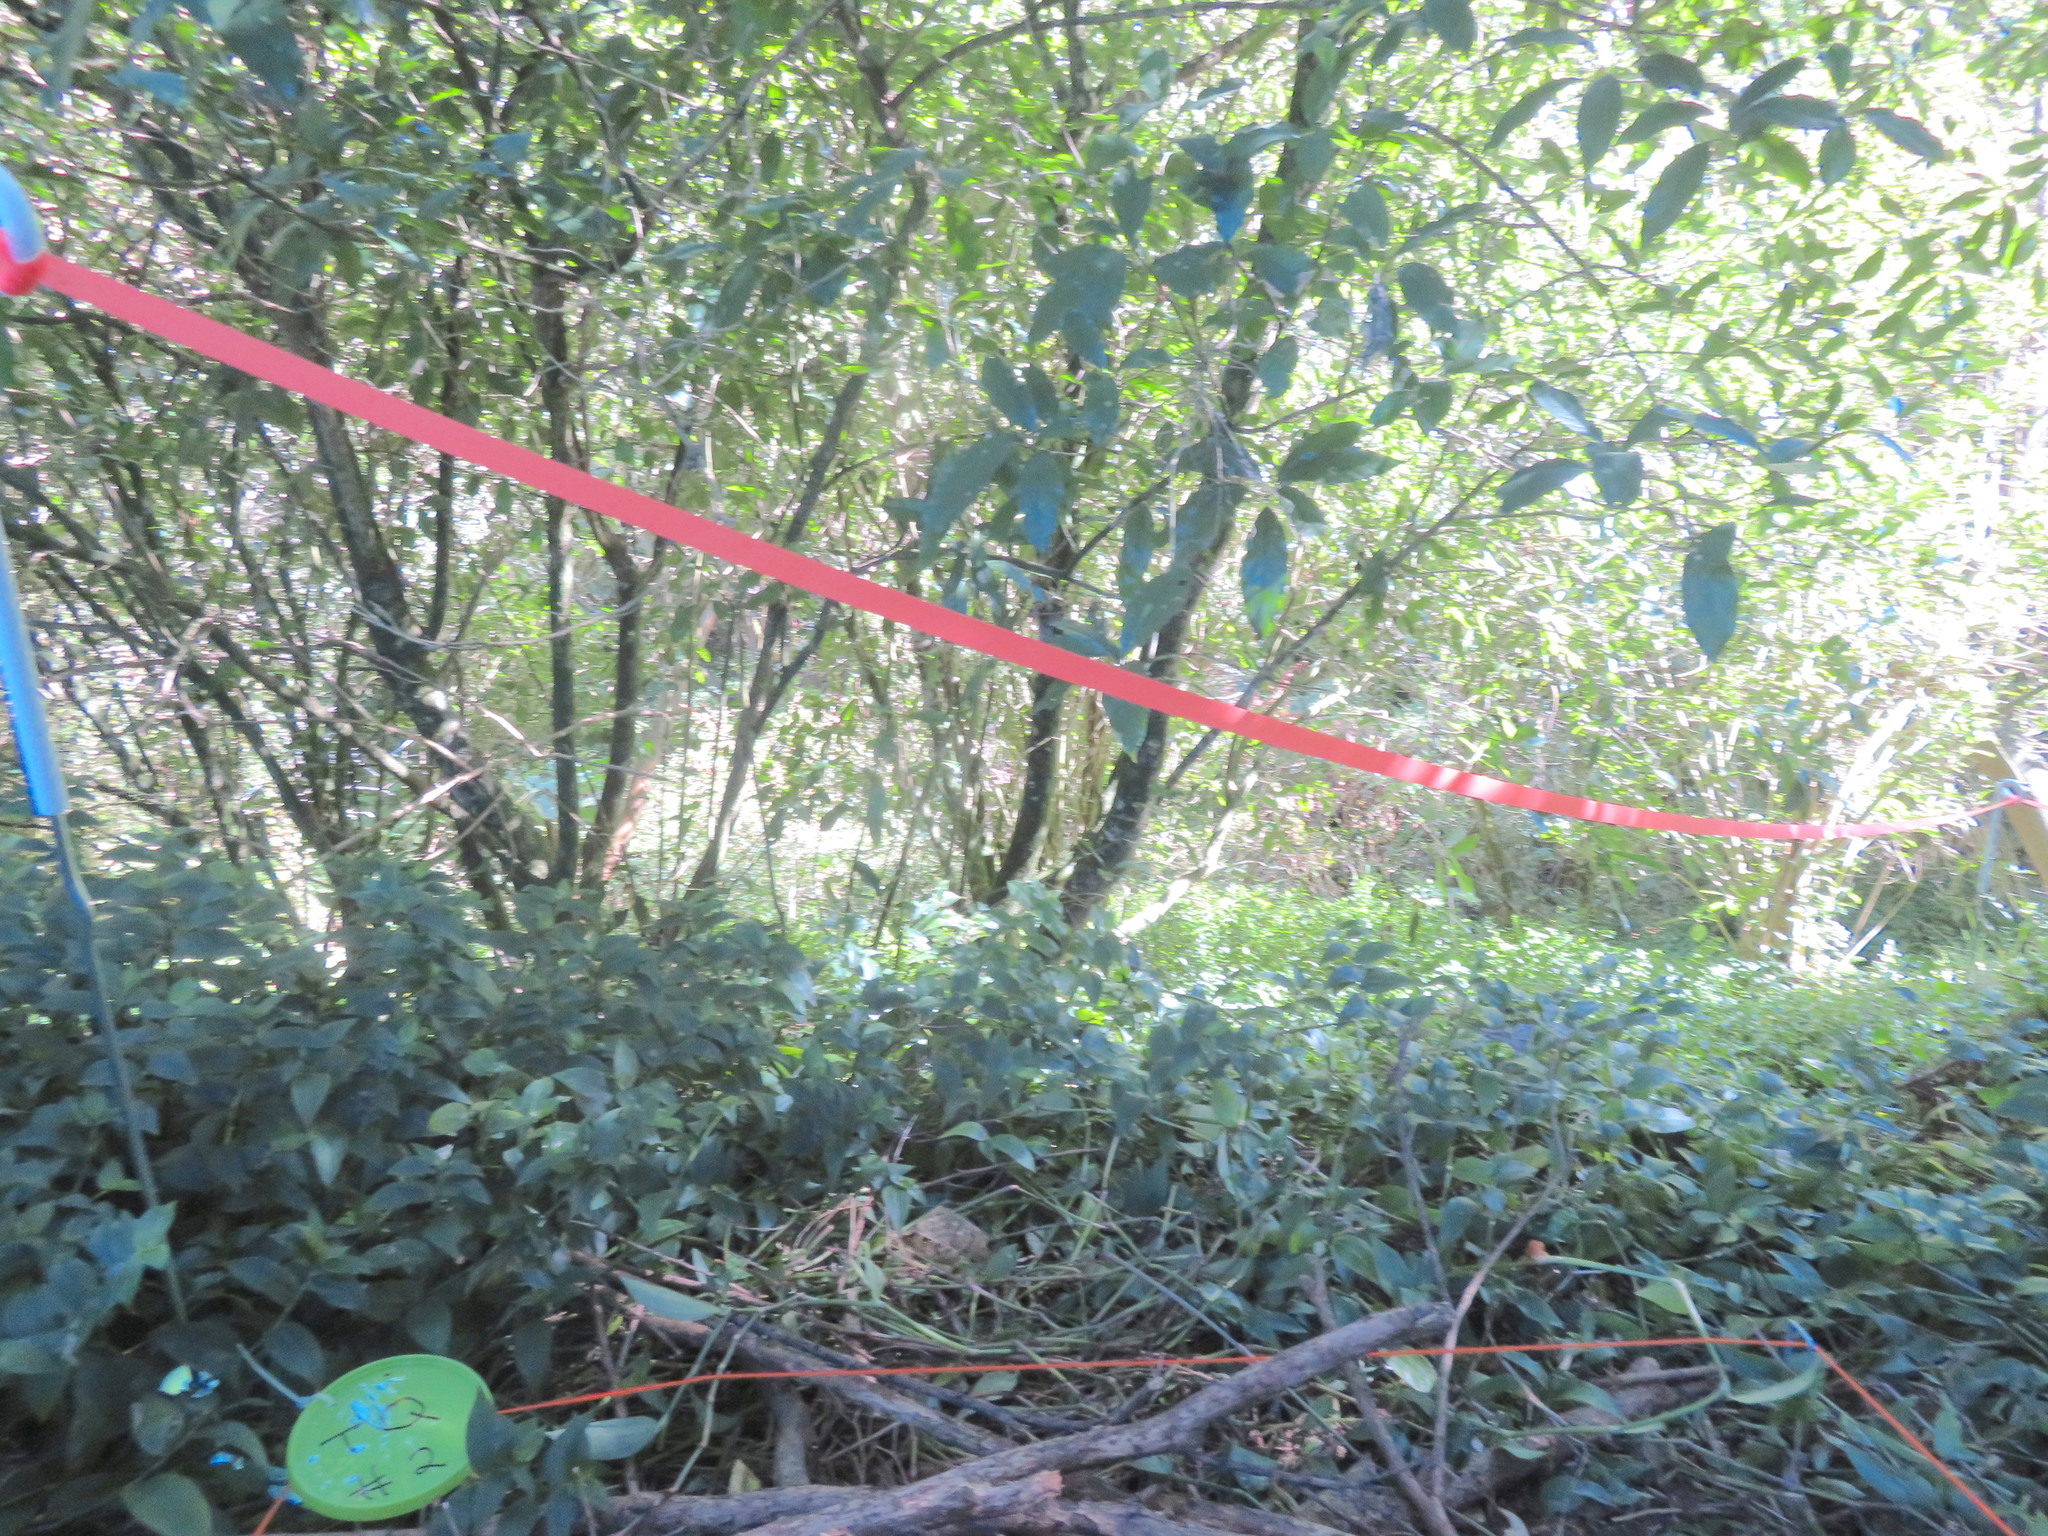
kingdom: Plantae
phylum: Tracheophyta
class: Liliopsida
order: Commelinales
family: Commelinaceae
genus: Tradescantia
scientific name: Tradescantia fluminensis
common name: Wandering-jew
